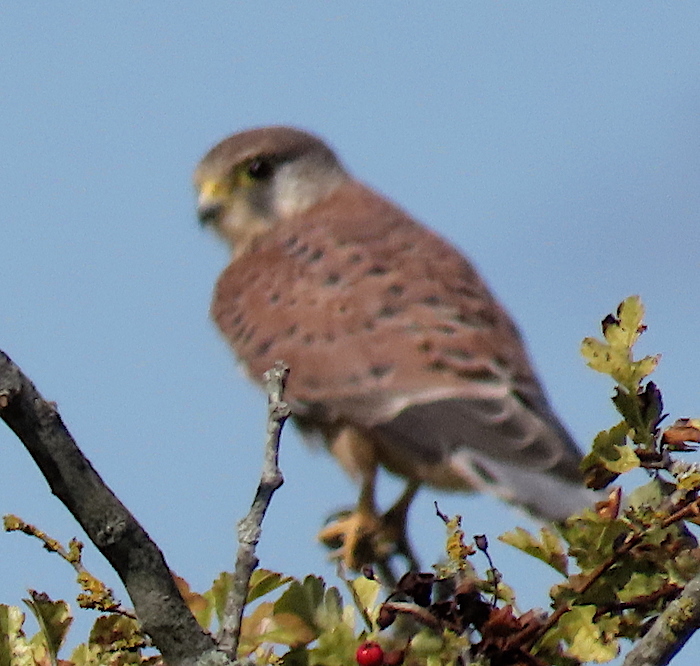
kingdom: Animalia
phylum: Chordata
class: Aves
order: Falconiformes
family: Falconidae
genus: Falco
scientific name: Falco tinnunculus
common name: Common kestrel
